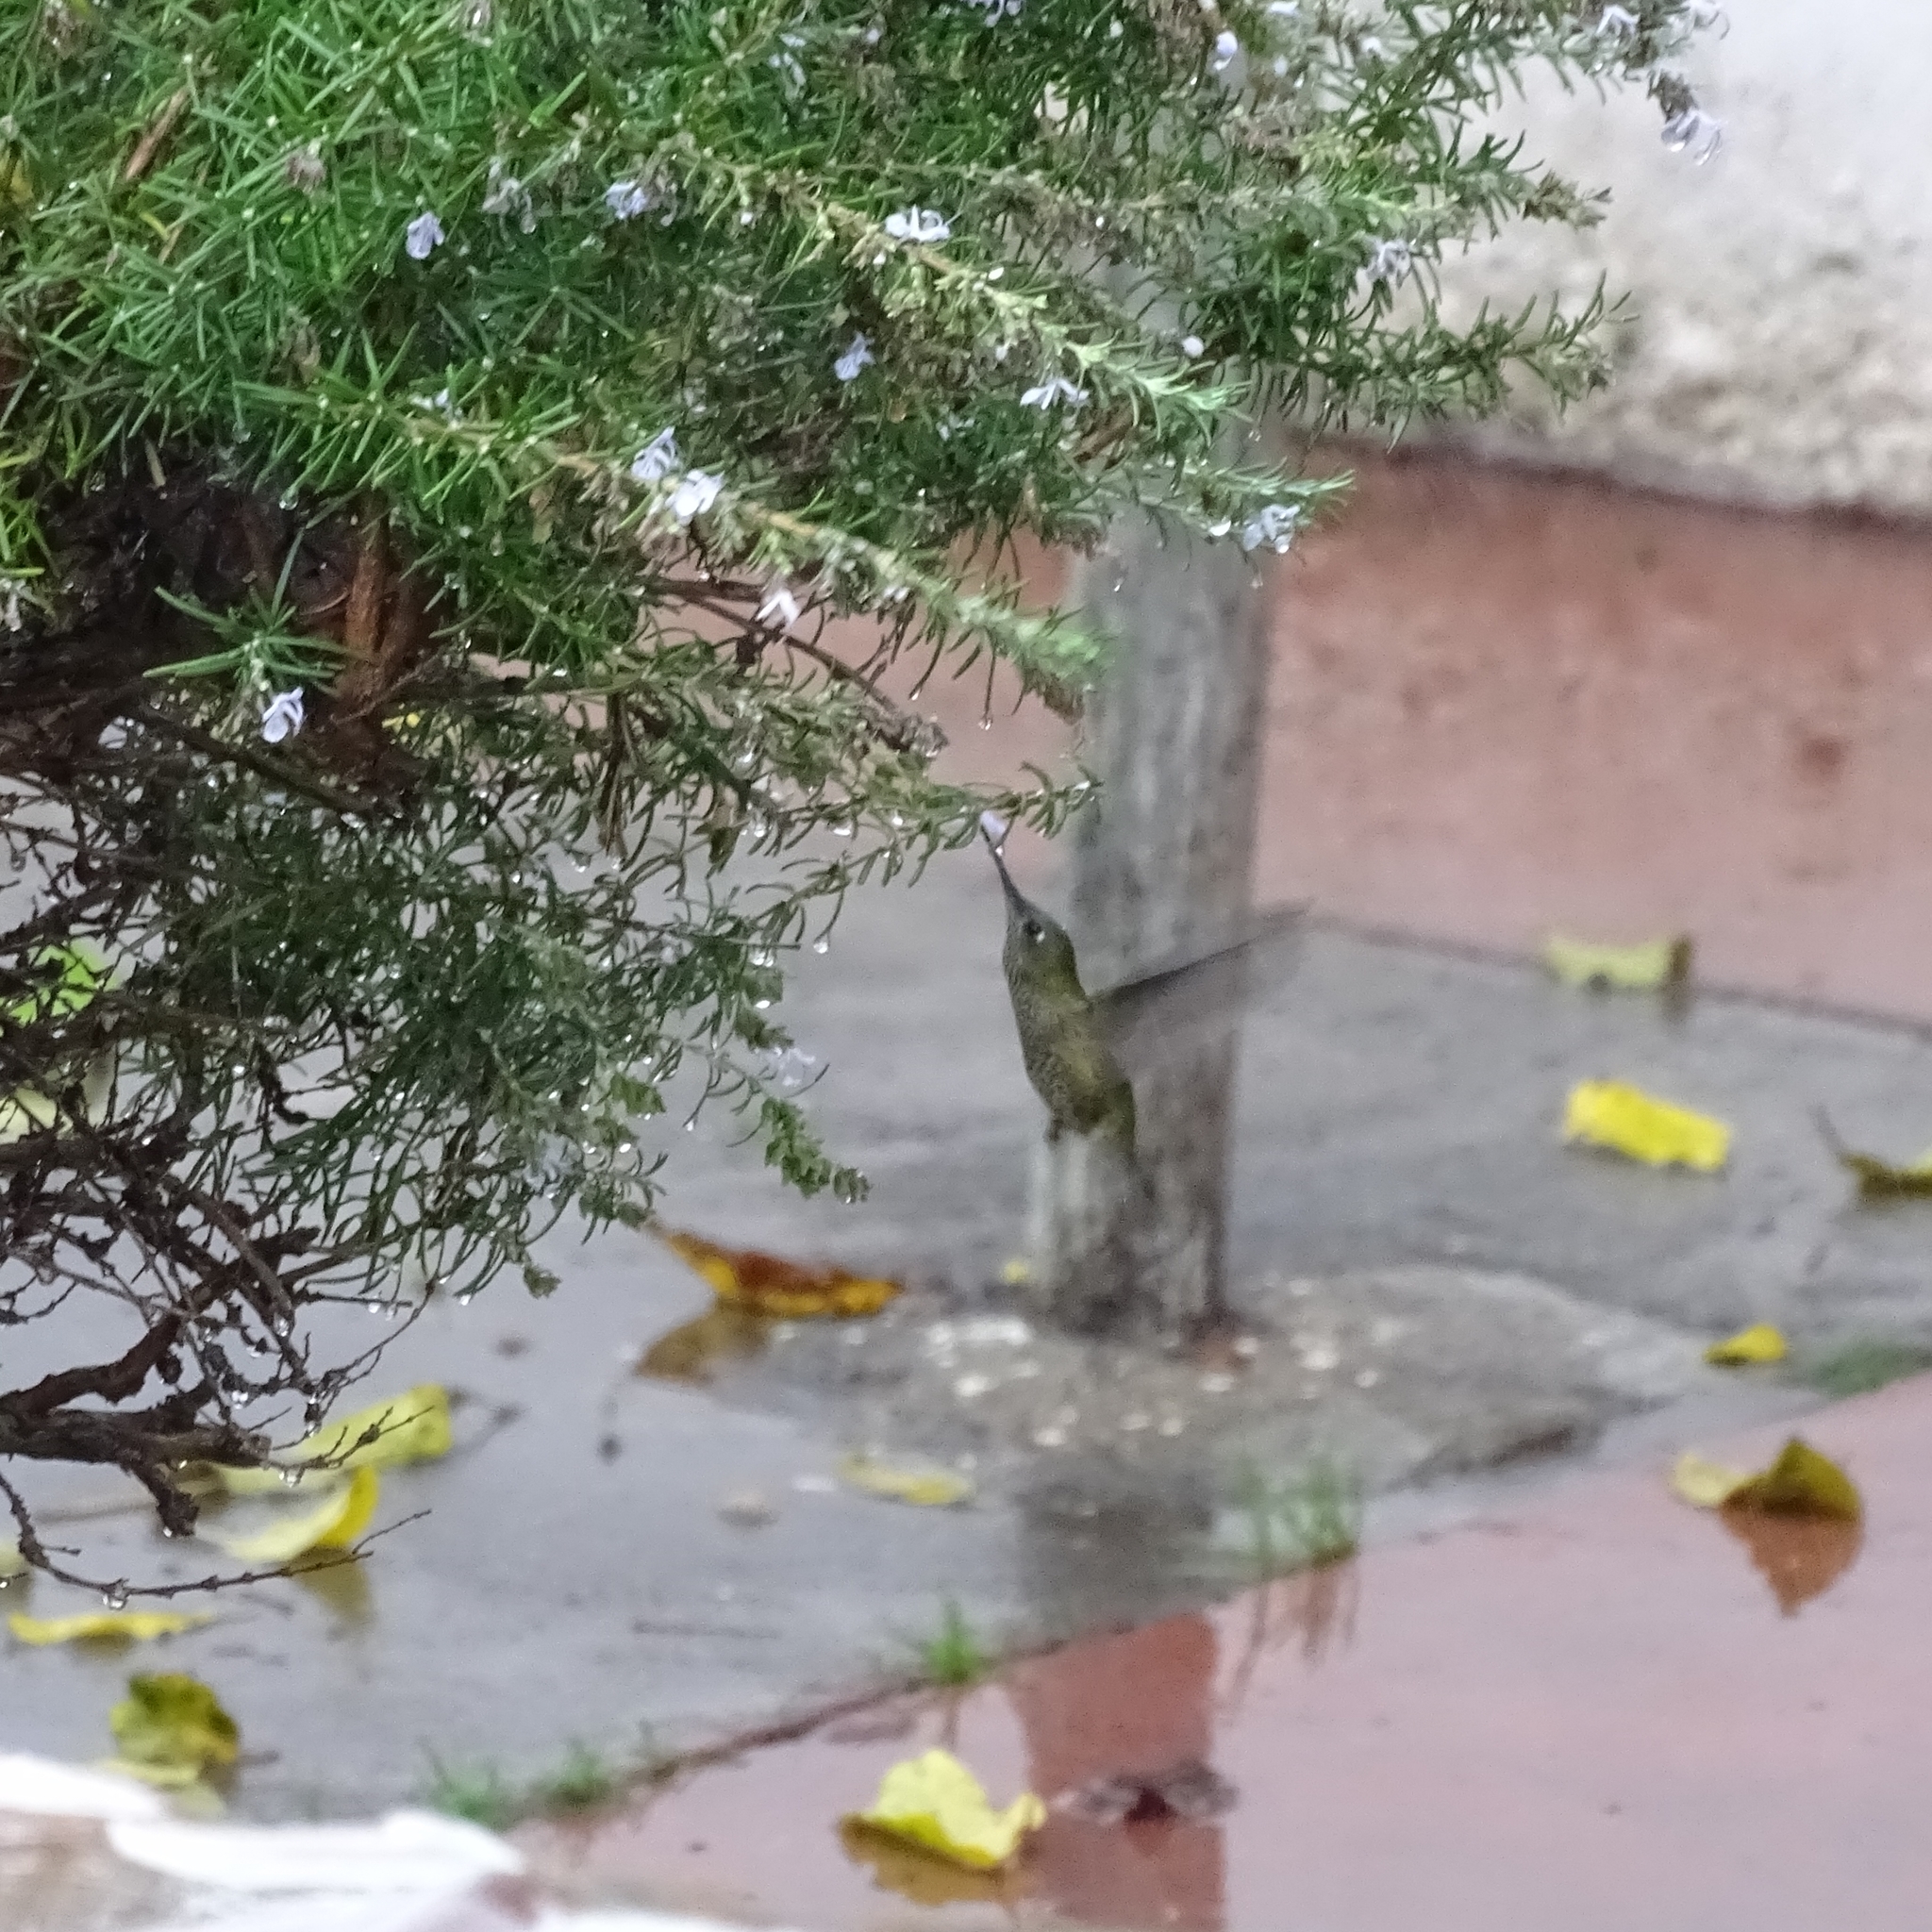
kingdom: Animalia
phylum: Chordata
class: Aves
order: Apodiformes
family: Trochilidae
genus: Sephanoides
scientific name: Sephanoides sephaniodes
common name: Green-backed firecrown
